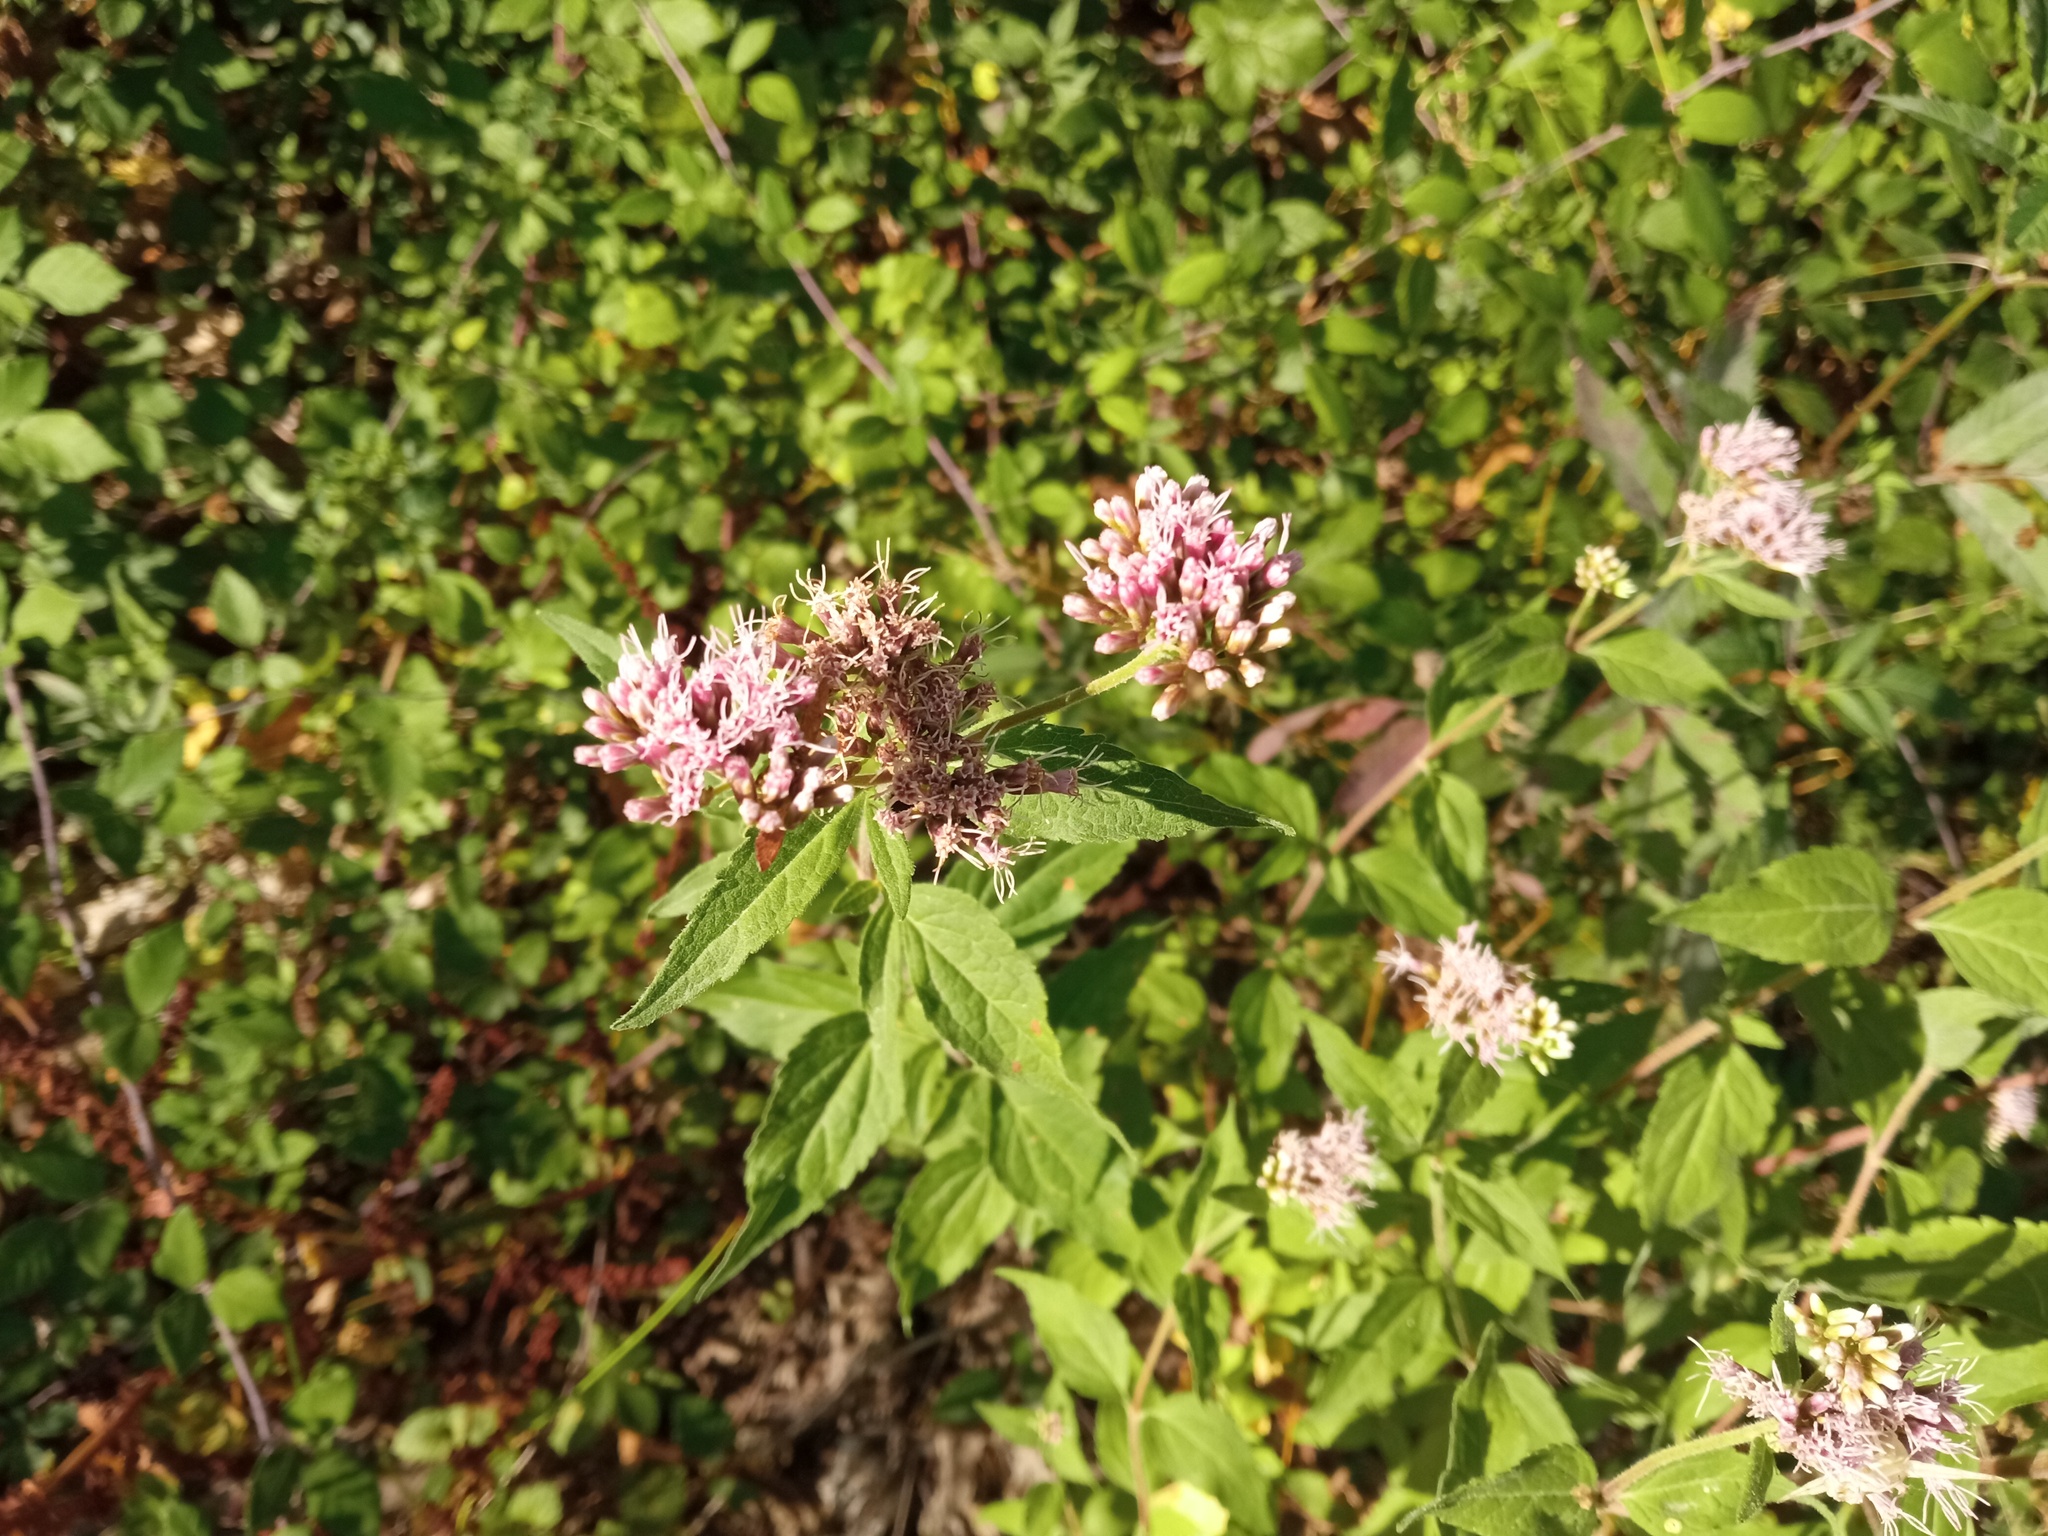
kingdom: Plantae
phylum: Tracheophyta
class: Magnoliopsida
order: Asterales
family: Asteraceae
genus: Eupatorium
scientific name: Eupatorium cannabinum
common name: Hemp-agrimony
